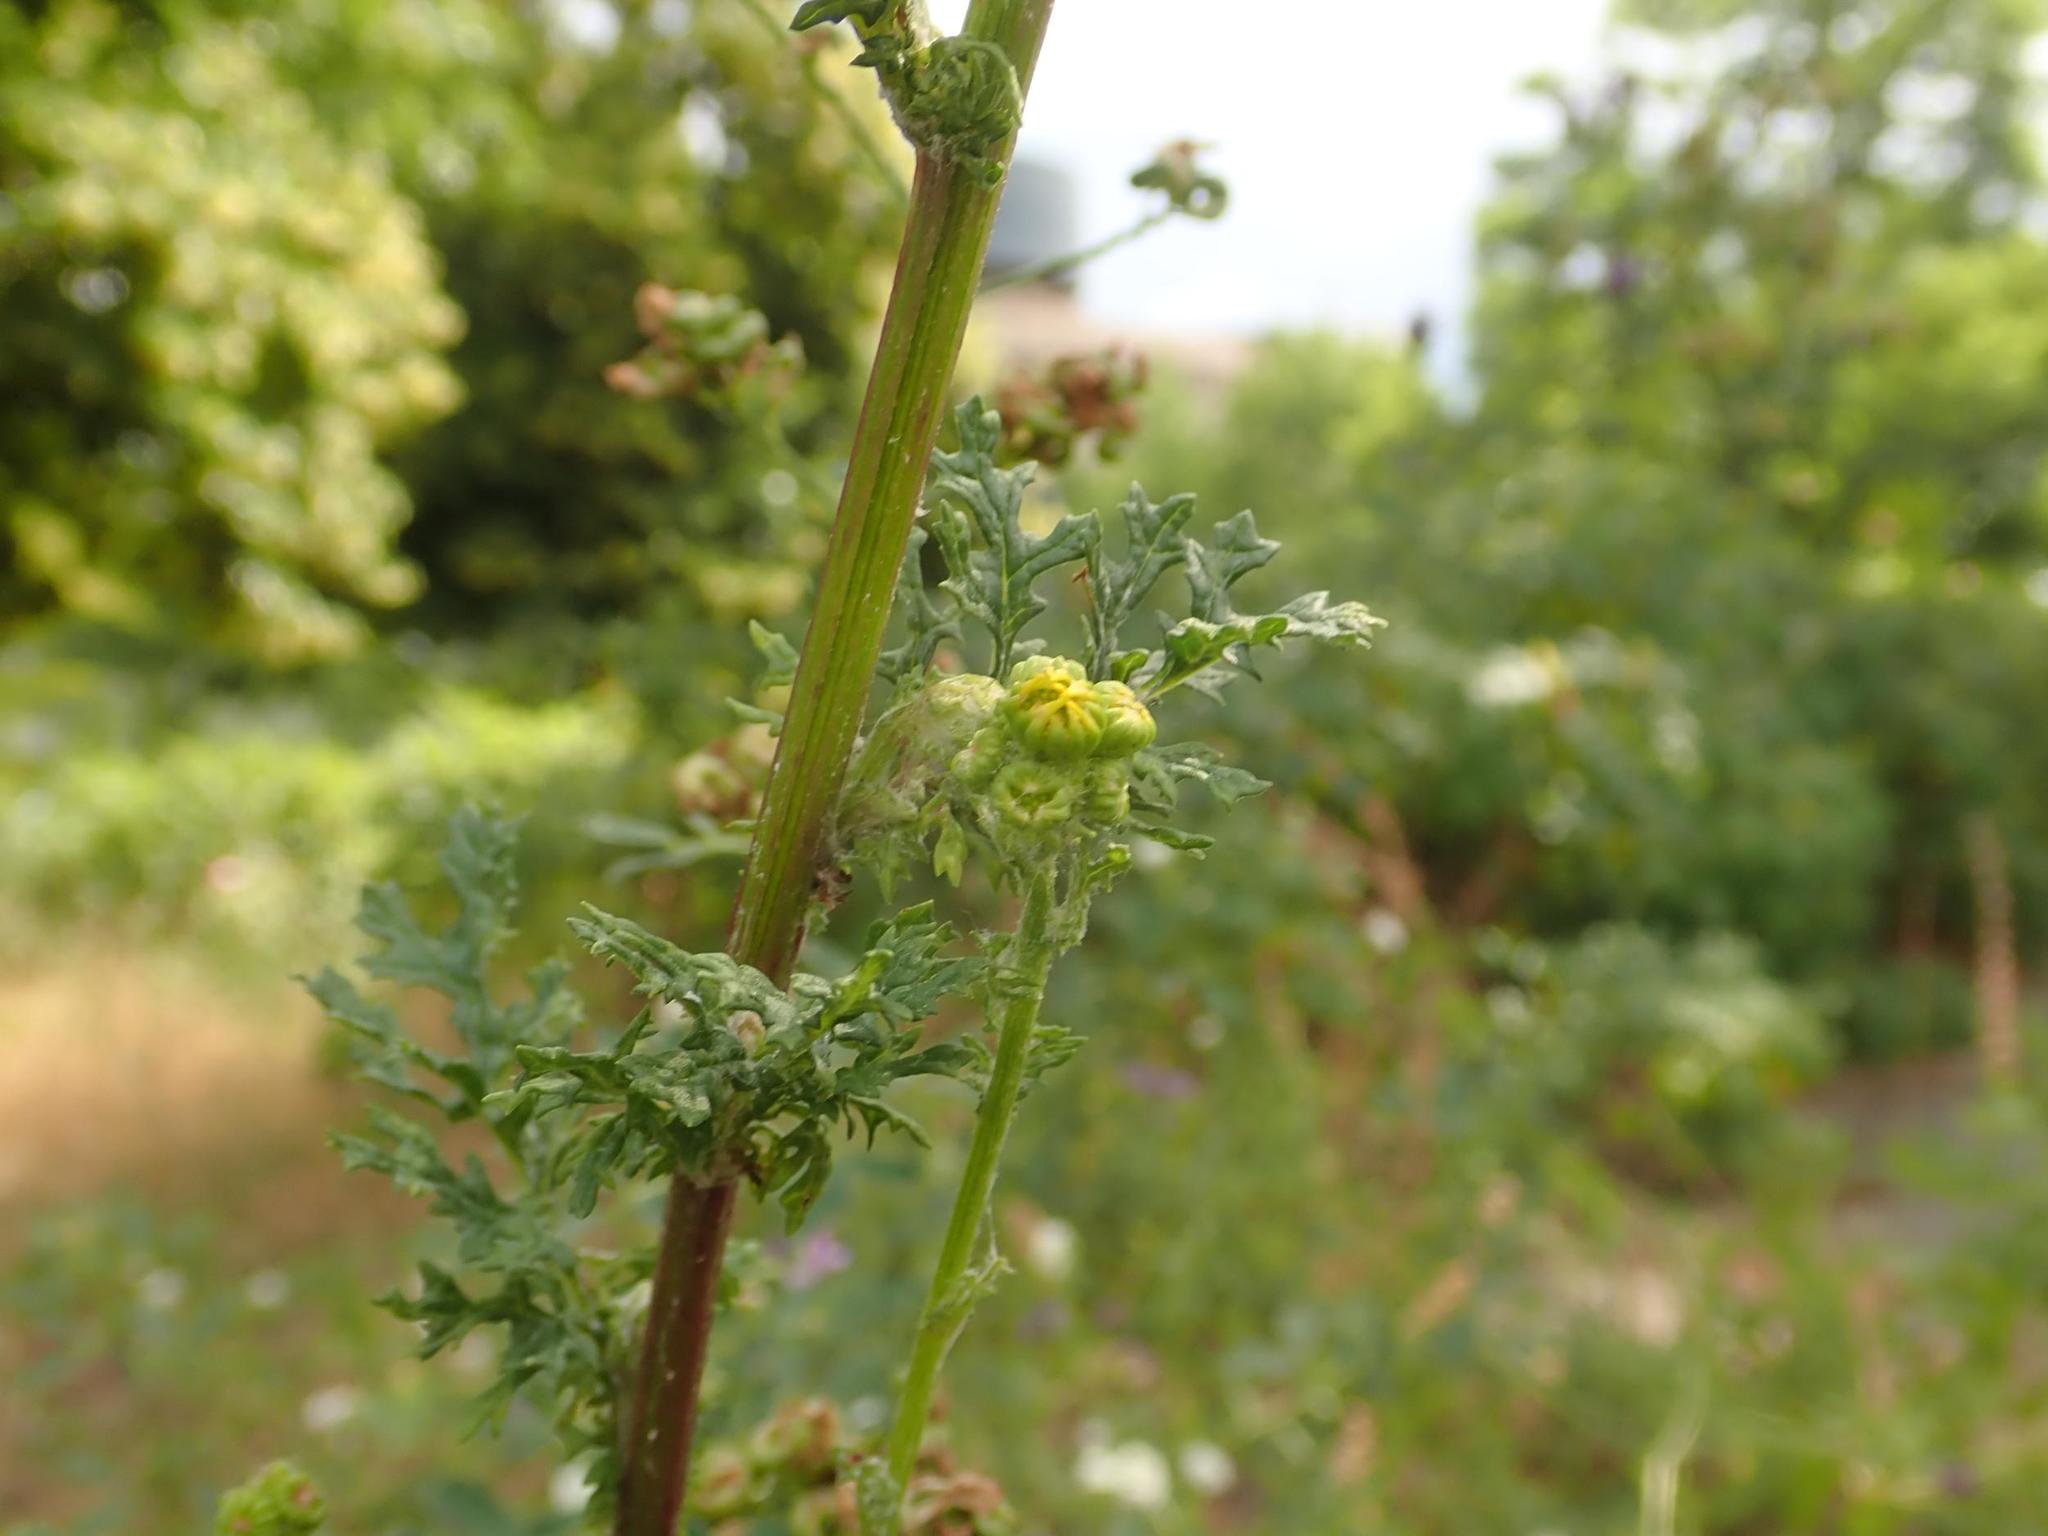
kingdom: Plantae
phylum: Tracheophyta
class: Magnoliopsida
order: Asterales
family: Asteraceae
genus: Jacobaea
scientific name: Jacobaea vulgaris
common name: Stinking willie
